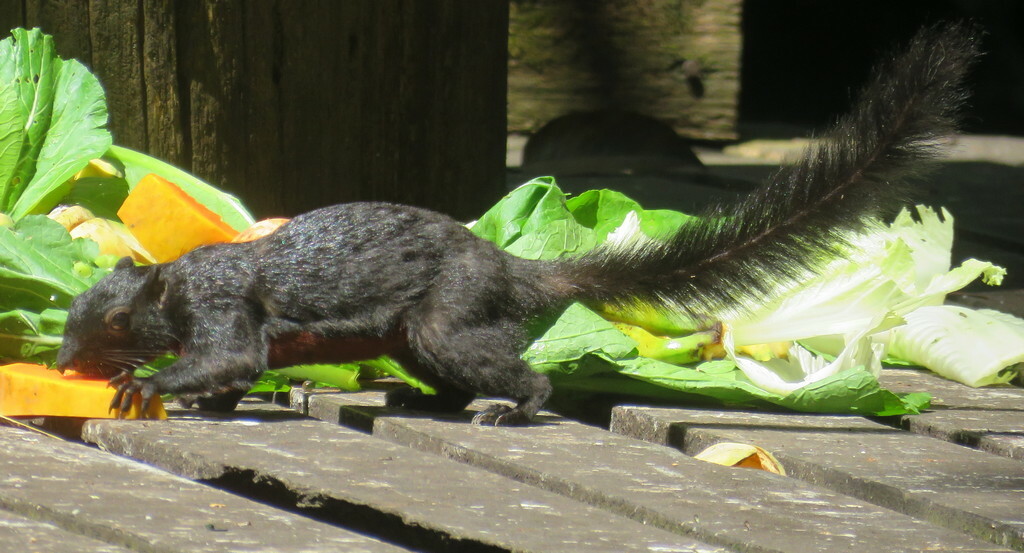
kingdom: Animalia
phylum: Chordata
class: Mammalia
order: Rodentia
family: Sciuridae
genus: Callosciurus
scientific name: Callosciurus prevostii
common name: Prevost's squirrel
